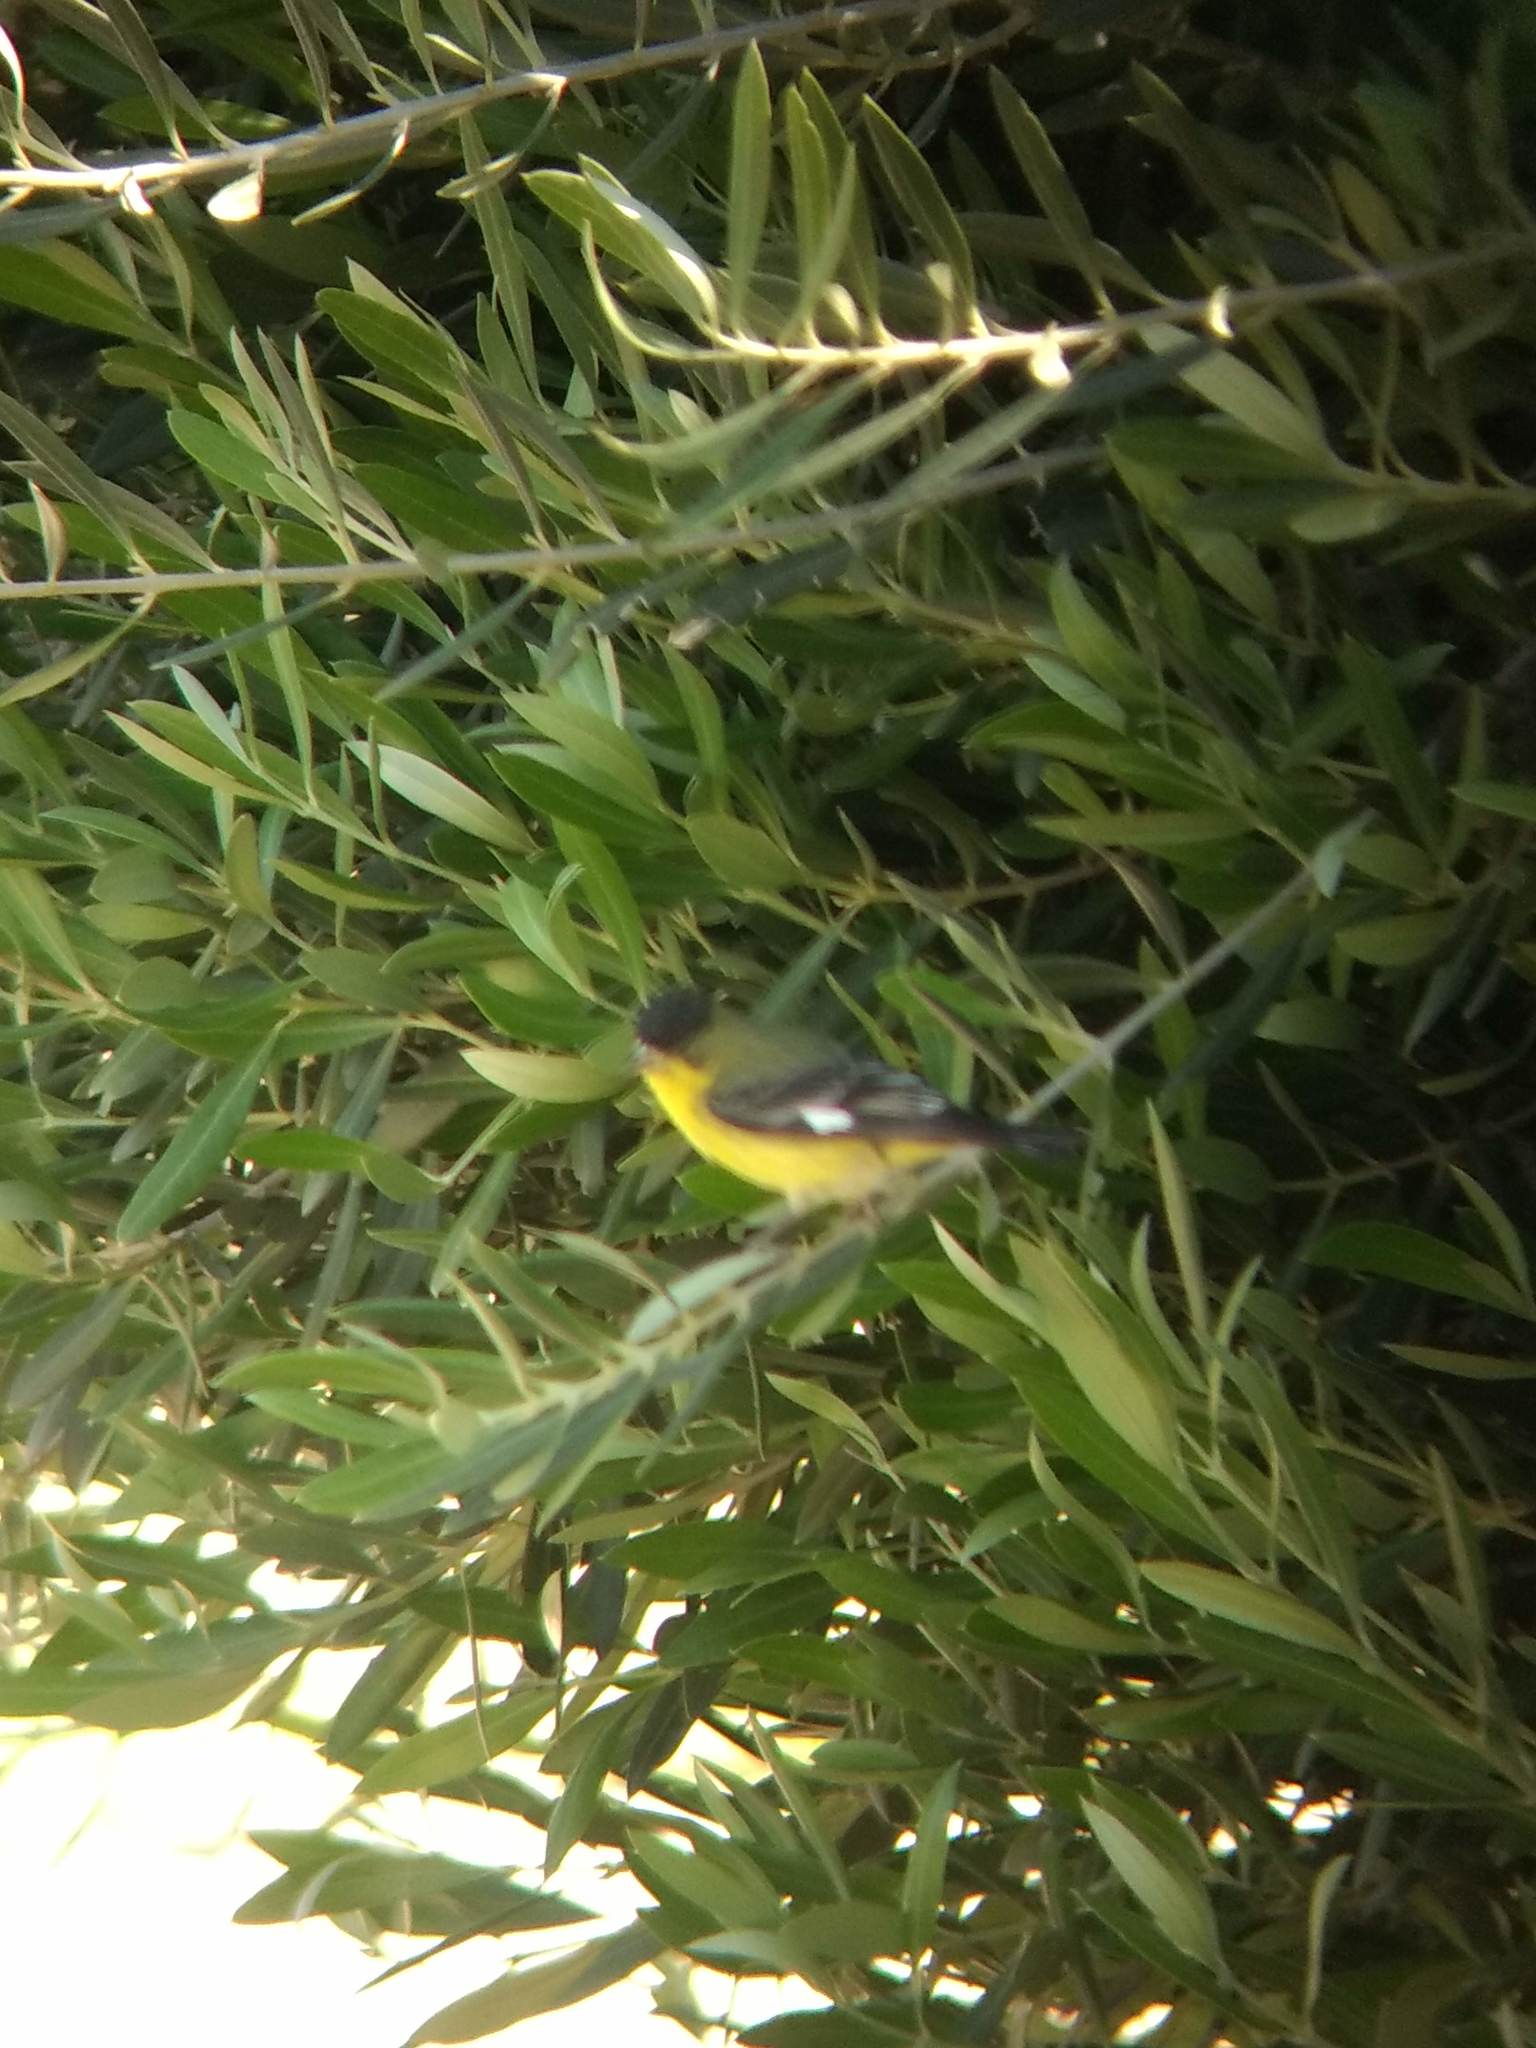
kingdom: Animalia
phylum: Chordata
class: Aves
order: Passeriformes
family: Fringillidae
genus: Spinus
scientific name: Spinus psaltria
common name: Lesser goldfinch
